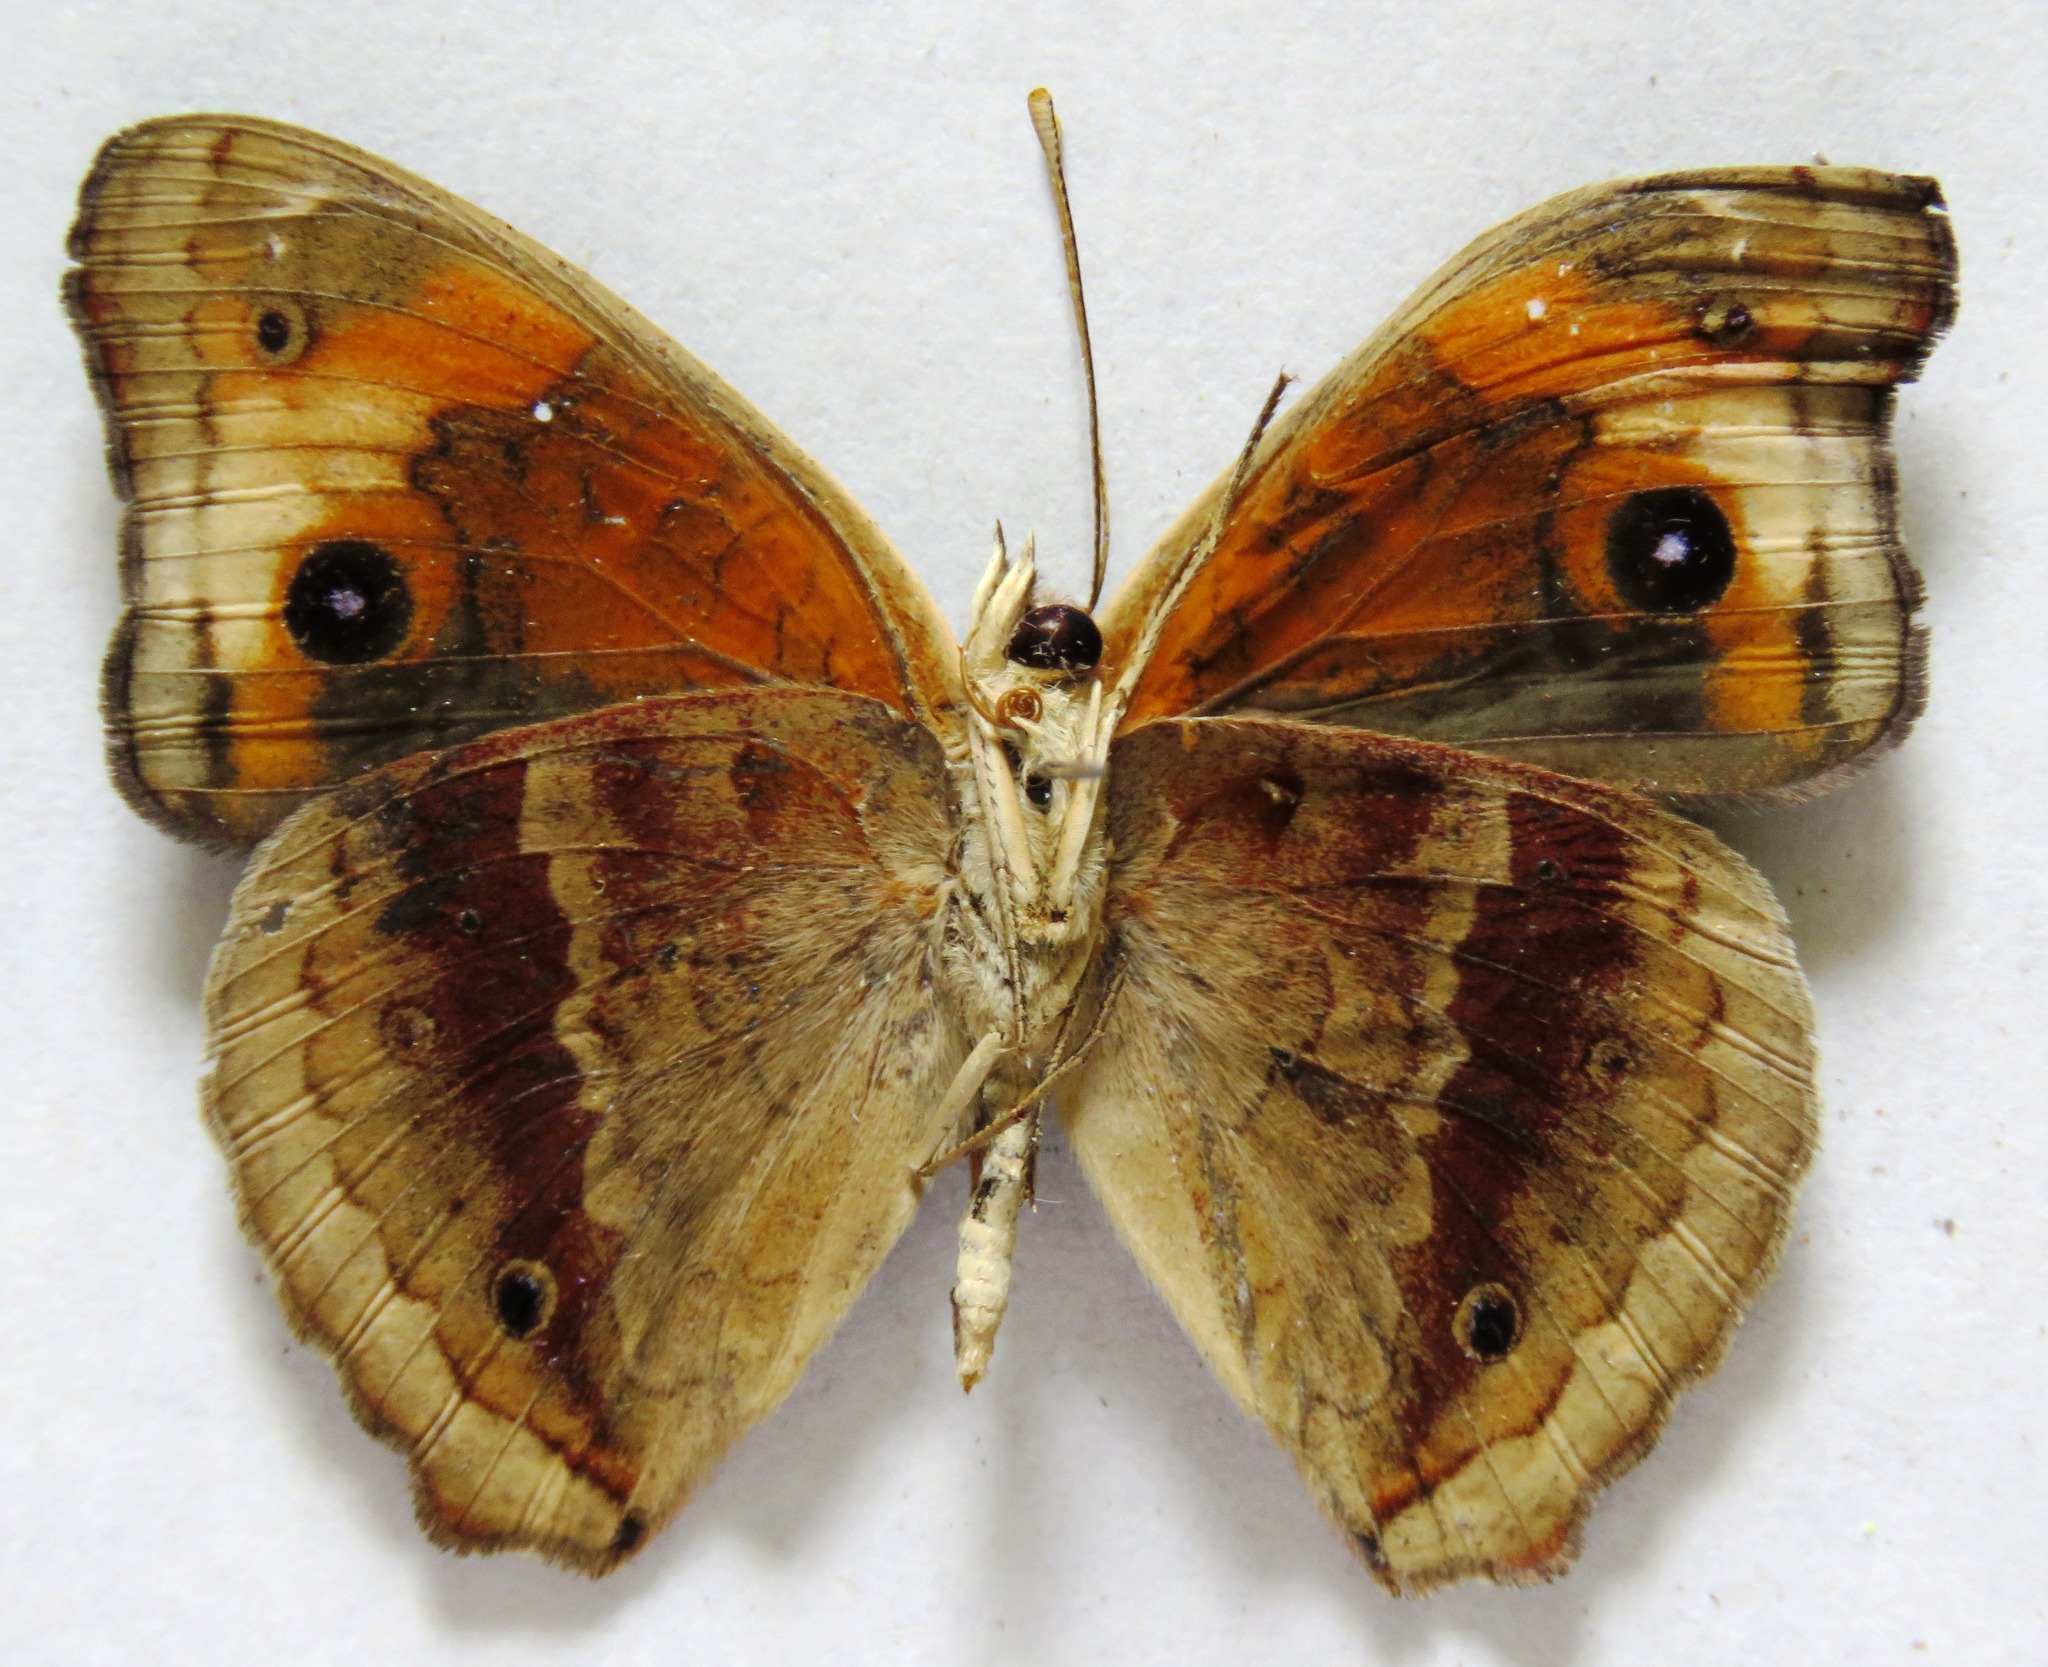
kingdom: Animalia
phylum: Arthropoda
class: Insecta
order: Lepidoptera
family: Nymphalidae
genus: Junonia
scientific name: Junonia lavinia
